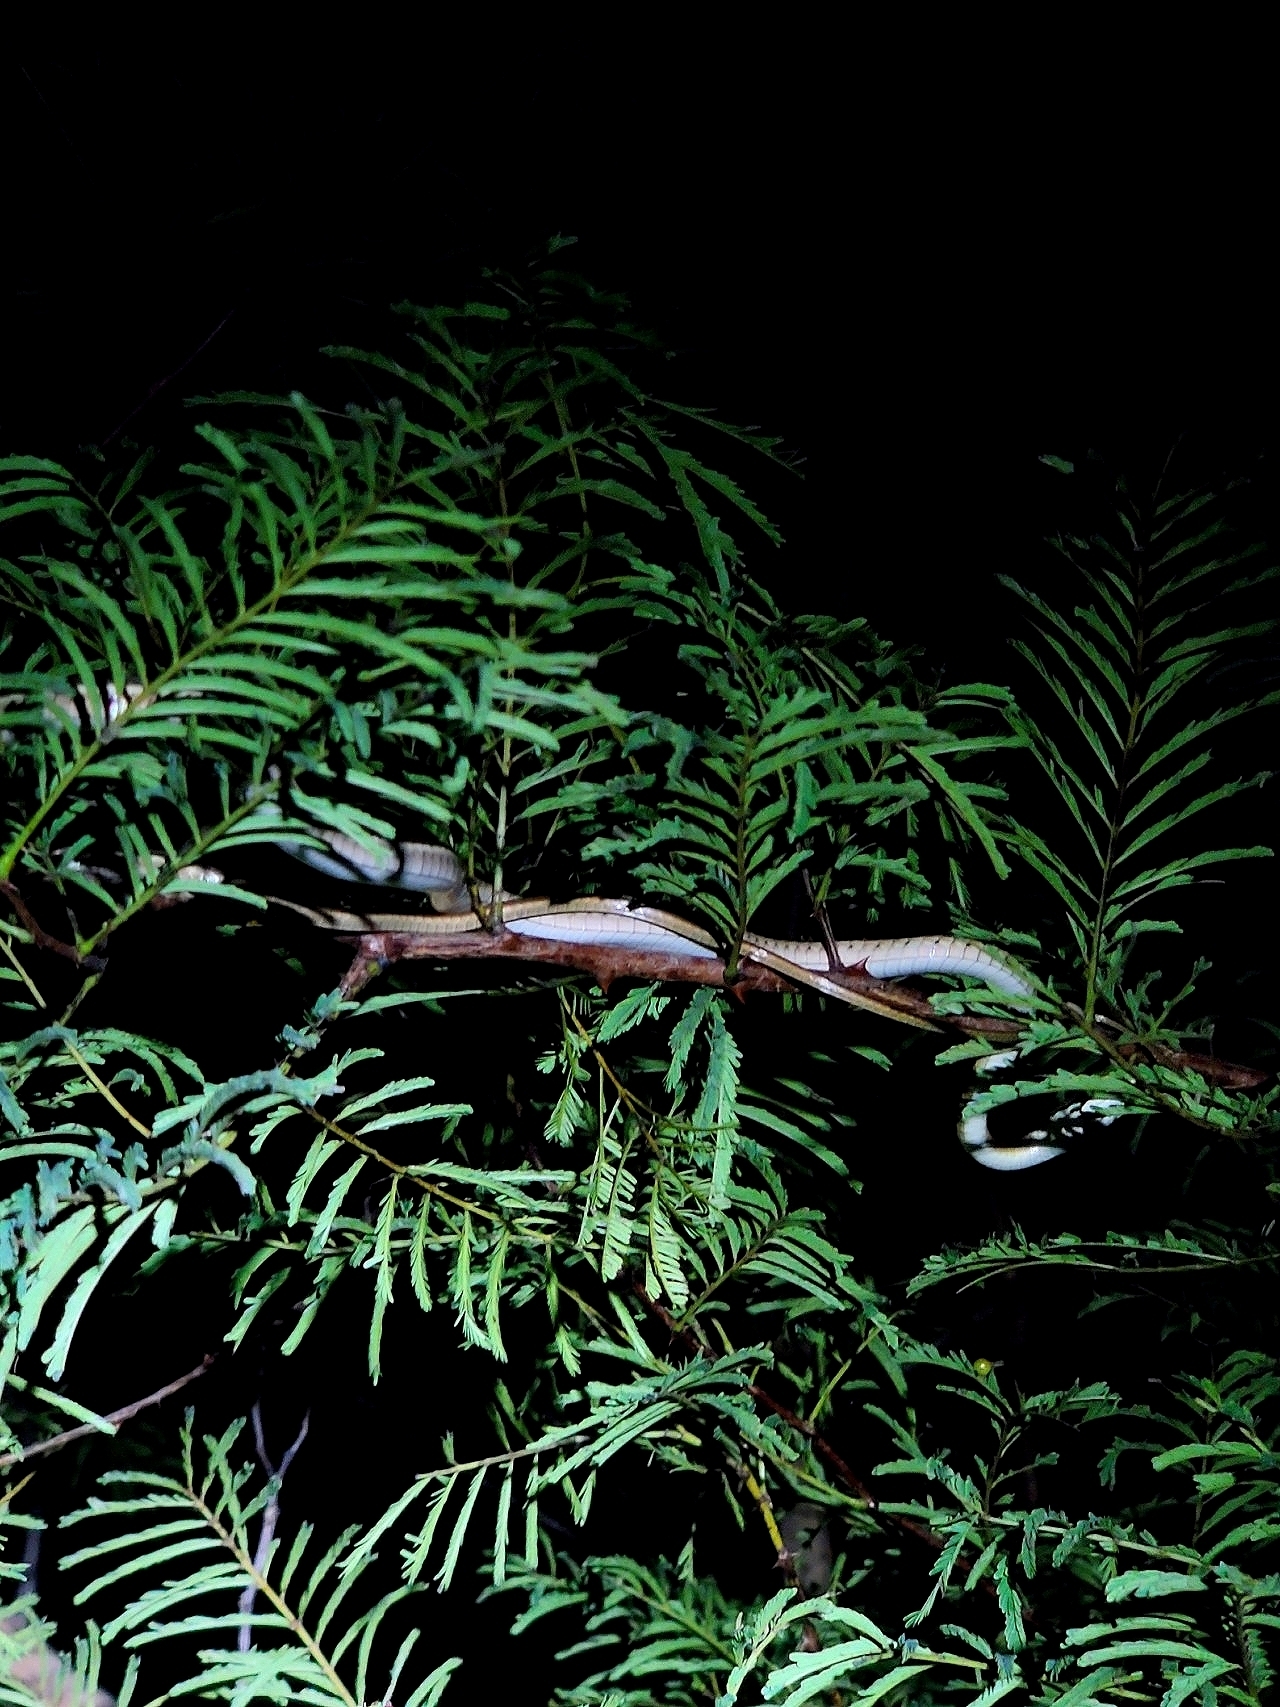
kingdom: Animalia
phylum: Chordata
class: Squamata
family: Colubridae
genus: Dendrelaphis
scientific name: Dendrelaphis tristis
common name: Daudin's bronzeback
